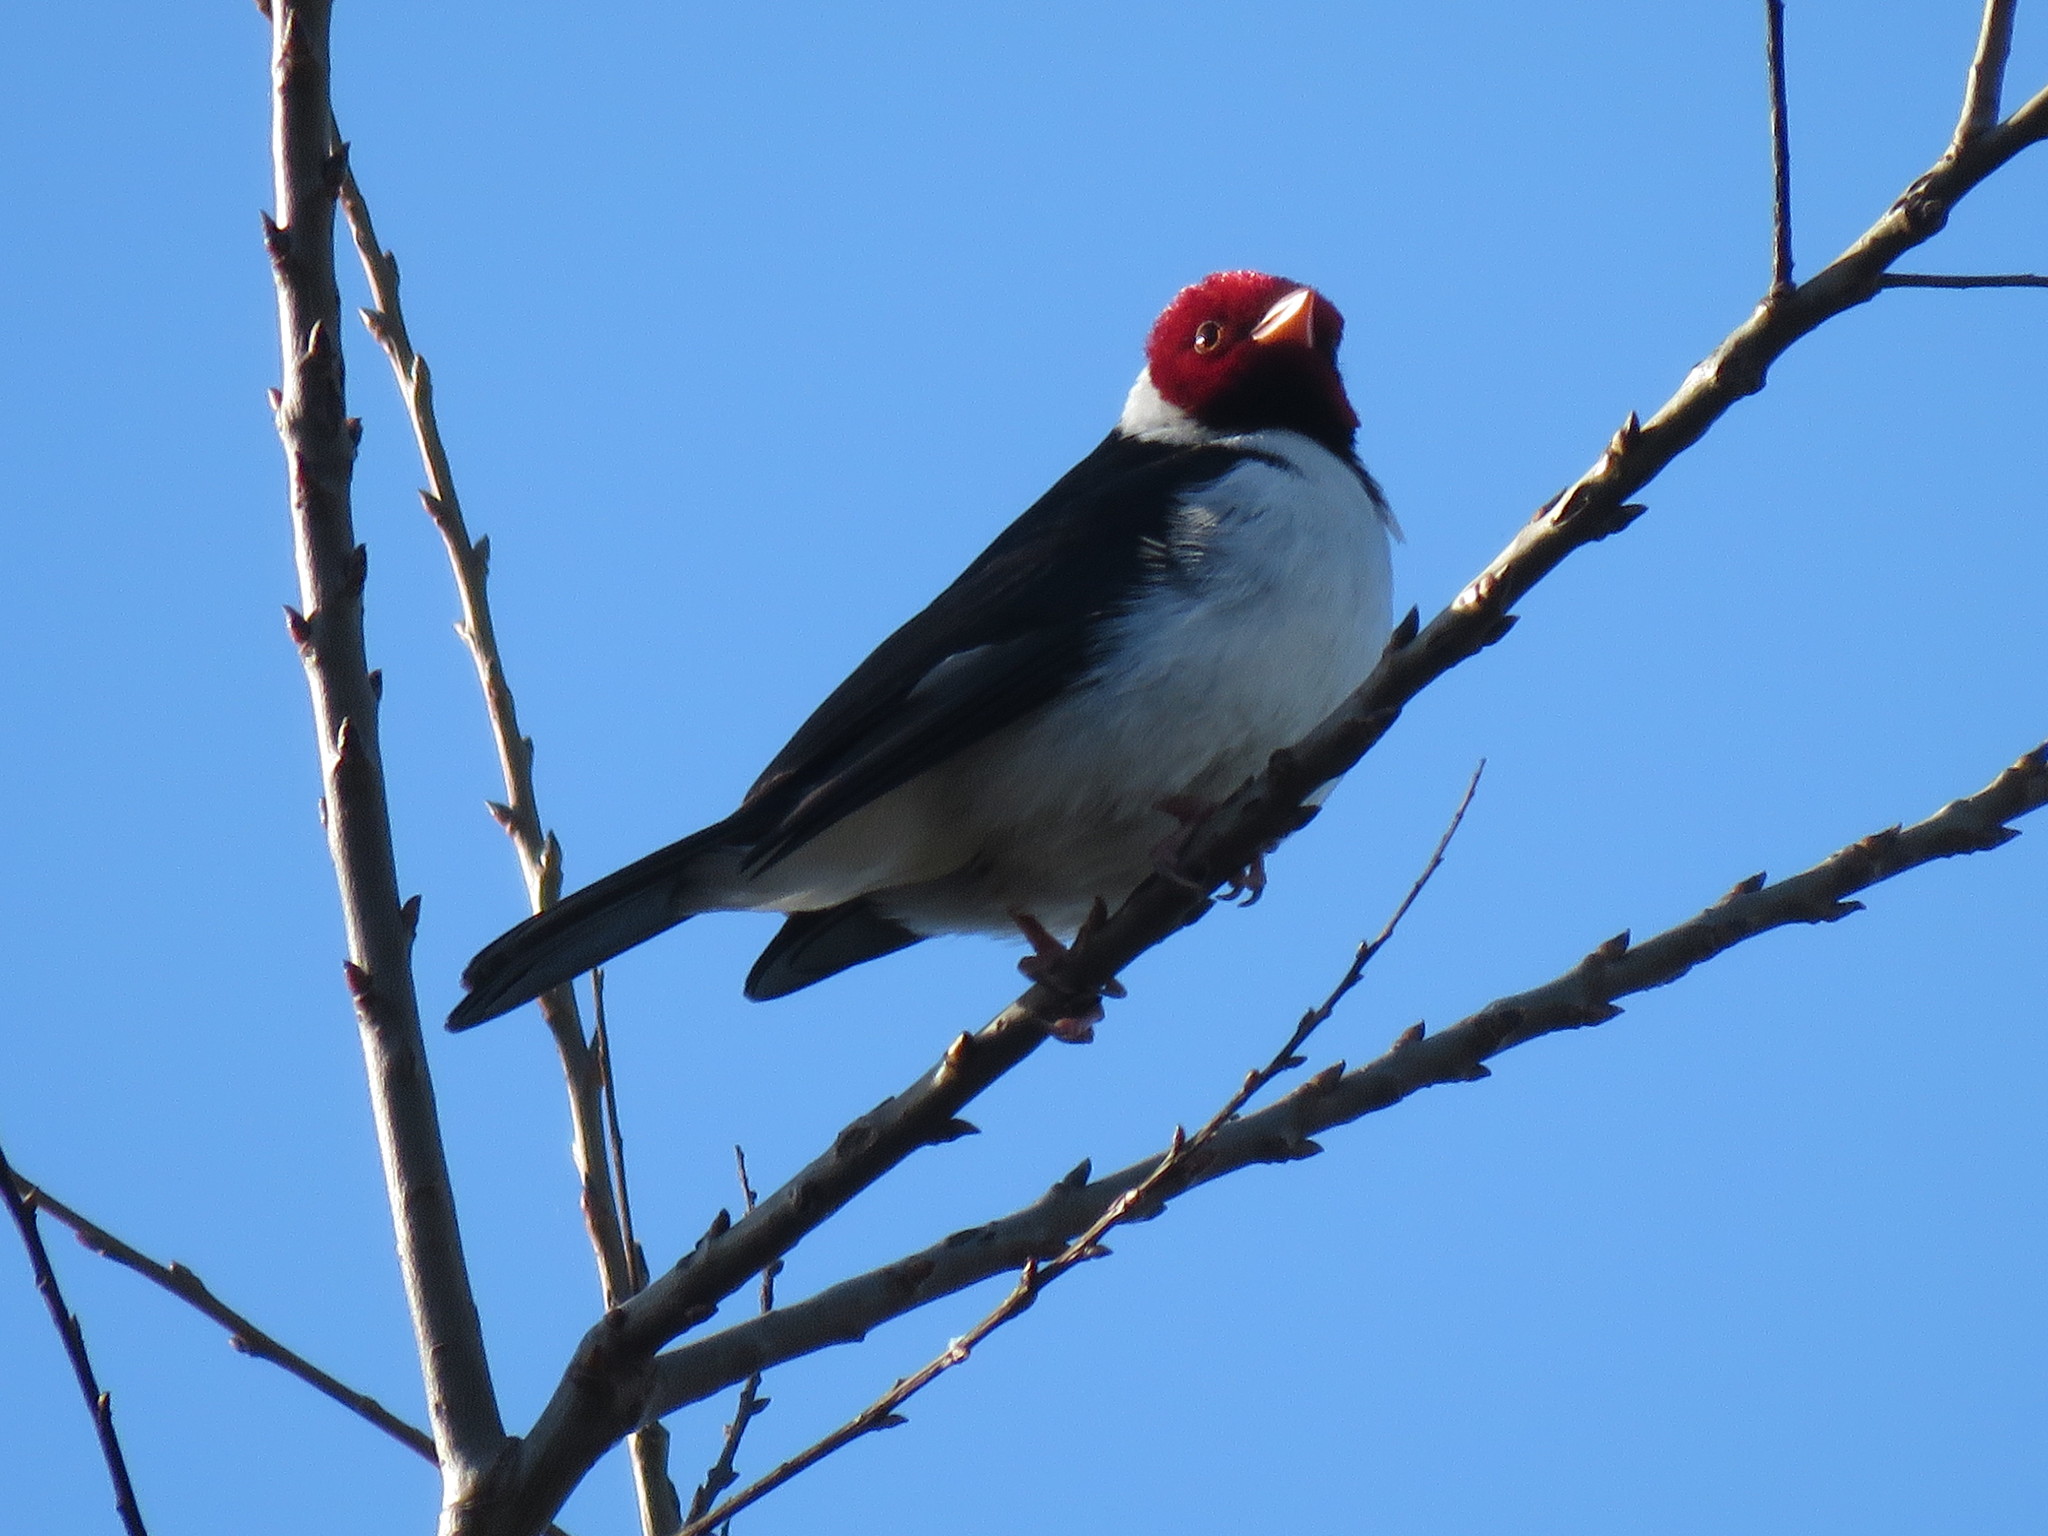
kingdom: Animalia
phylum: Chordata
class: Aves
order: Passeriformes
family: Thraupidae
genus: Paroaria
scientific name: Paroaria capitata
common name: Yellow-billed cardinal
